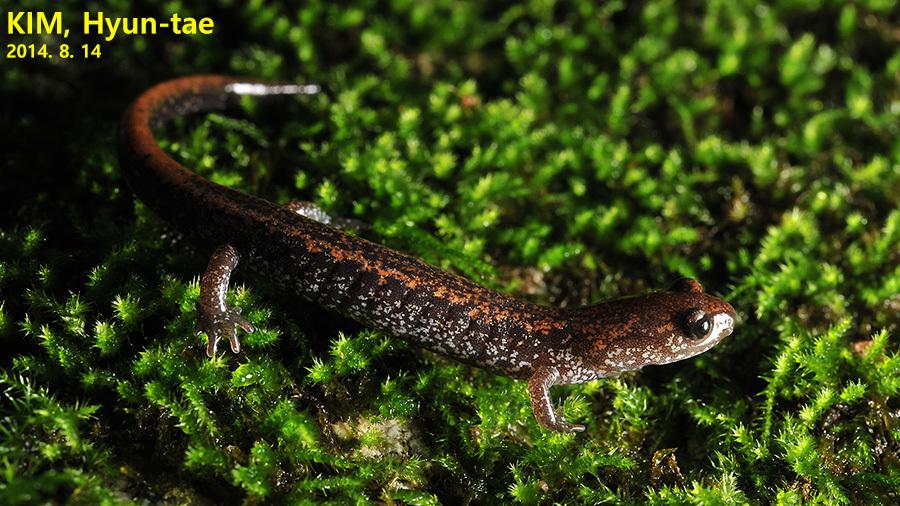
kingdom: Animalia
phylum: Chordata
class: Amphibia
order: Caudata
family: Plethodontidae
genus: Karsenia
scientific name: Karsenia koreana
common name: Korean crevice salamander
